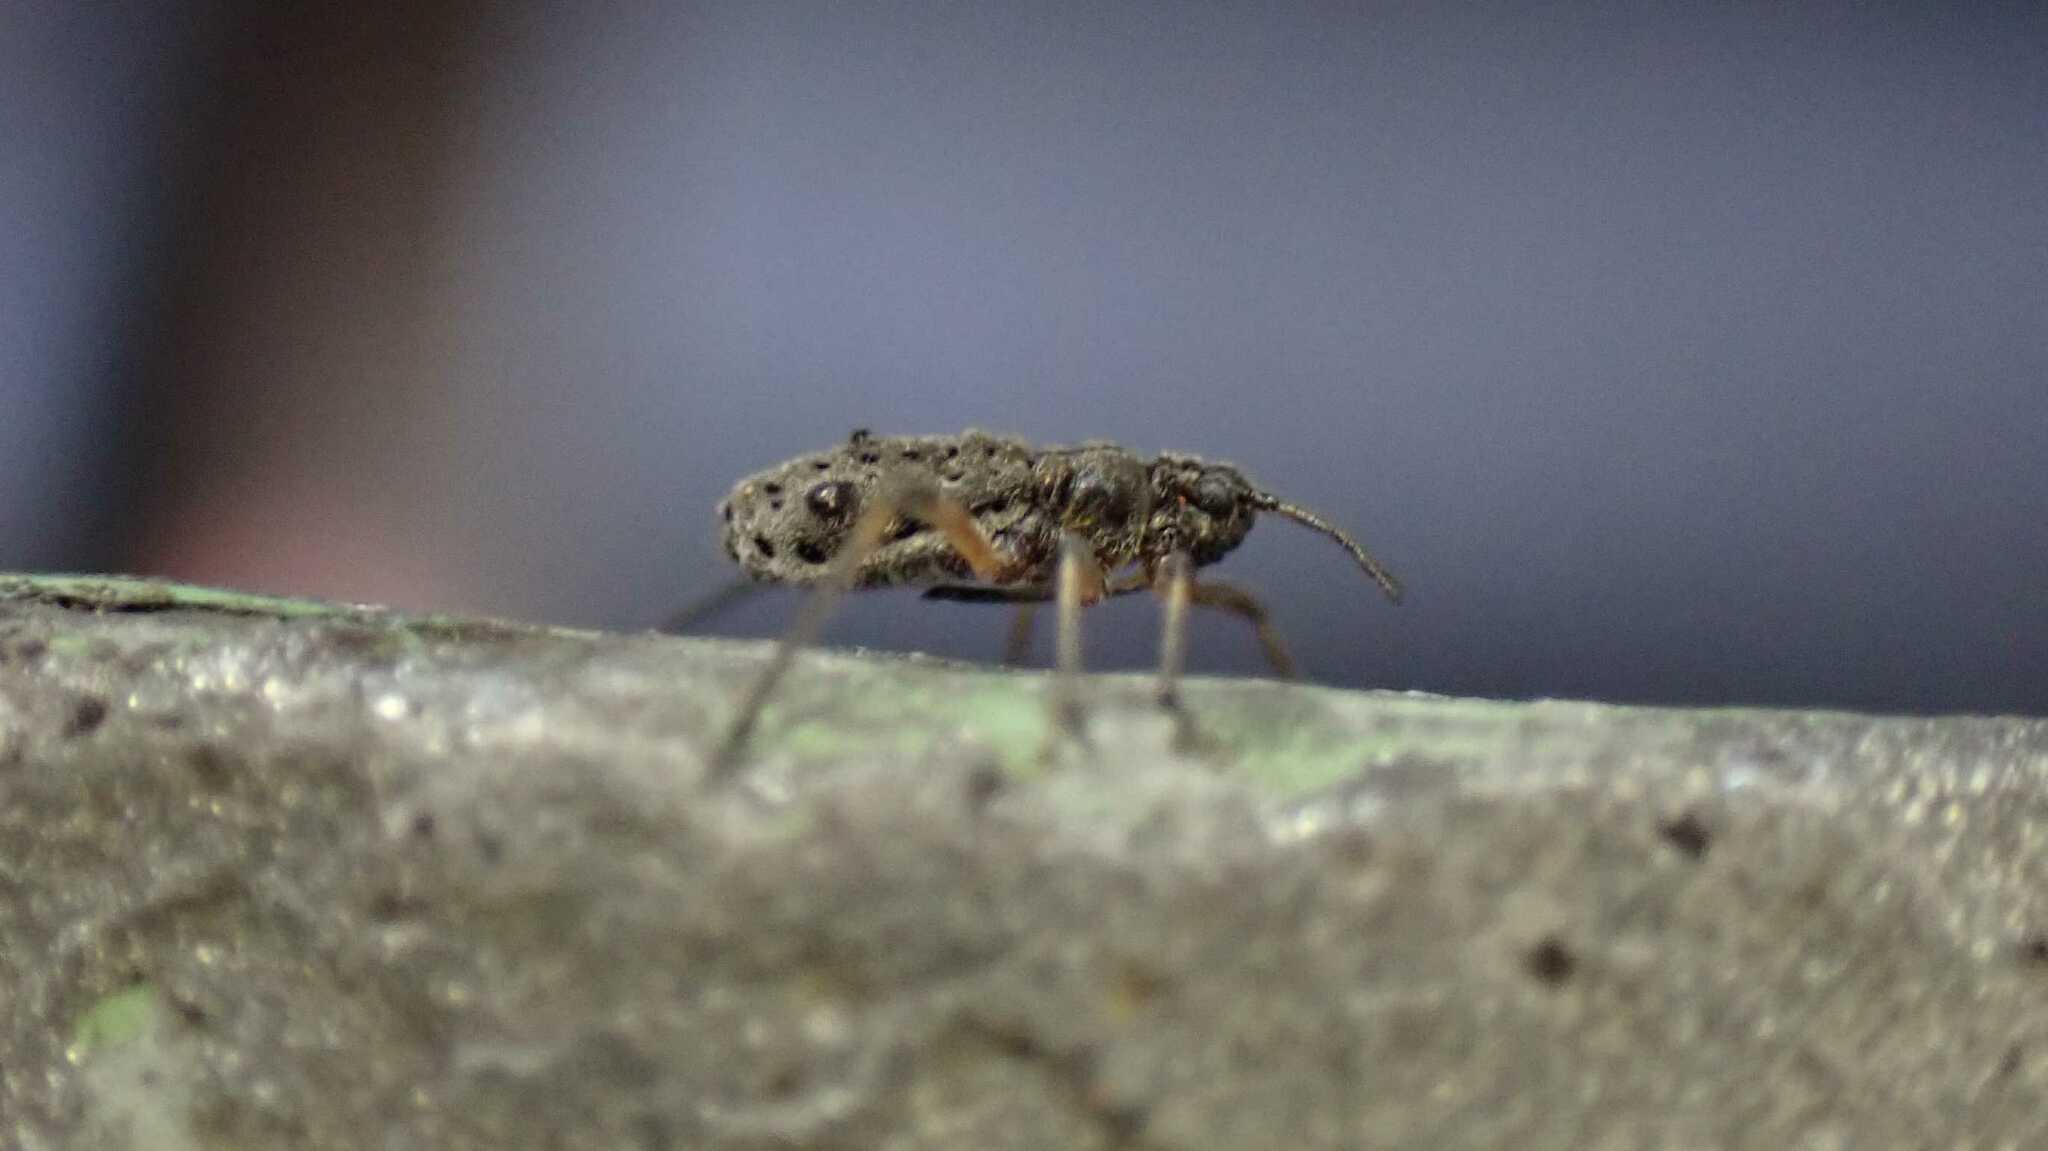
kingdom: Animalia
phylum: Arthropoda
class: Insecta
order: Hemiptera
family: Aphididae
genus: Tuberolachnus
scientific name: Tuberolachnus salignus
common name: Giant willow aphid
